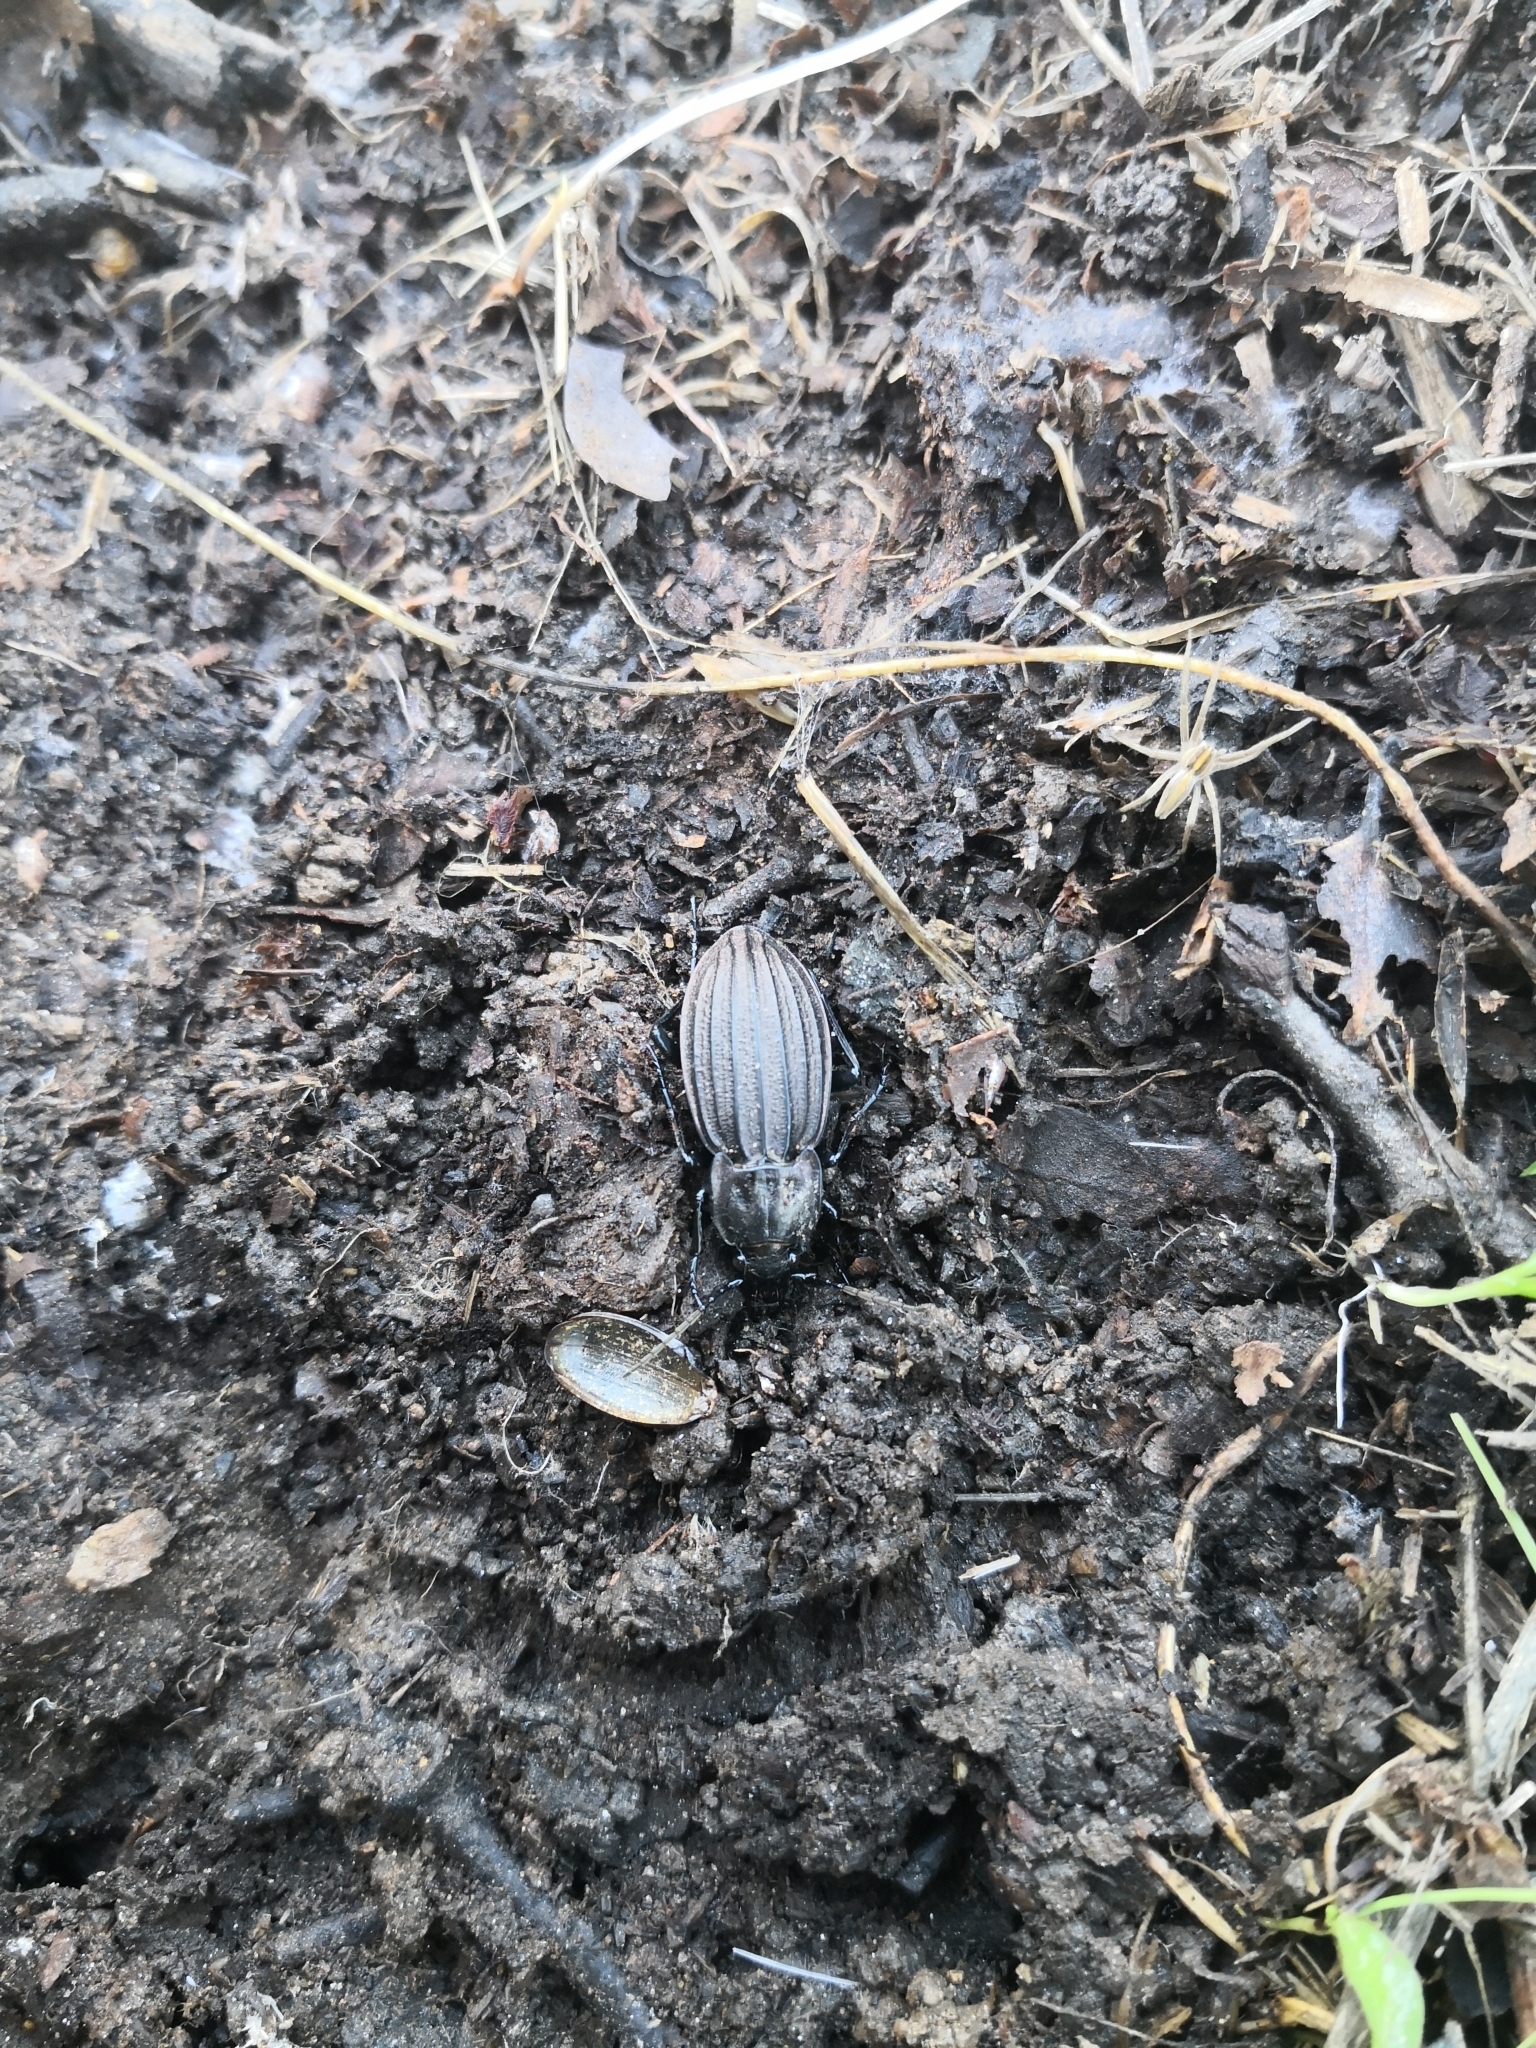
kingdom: Animalia
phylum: Arthropoda
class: Insecta
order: Coleoptera
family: Carabidae
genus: Carabus
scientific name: Carabus melancholicus
